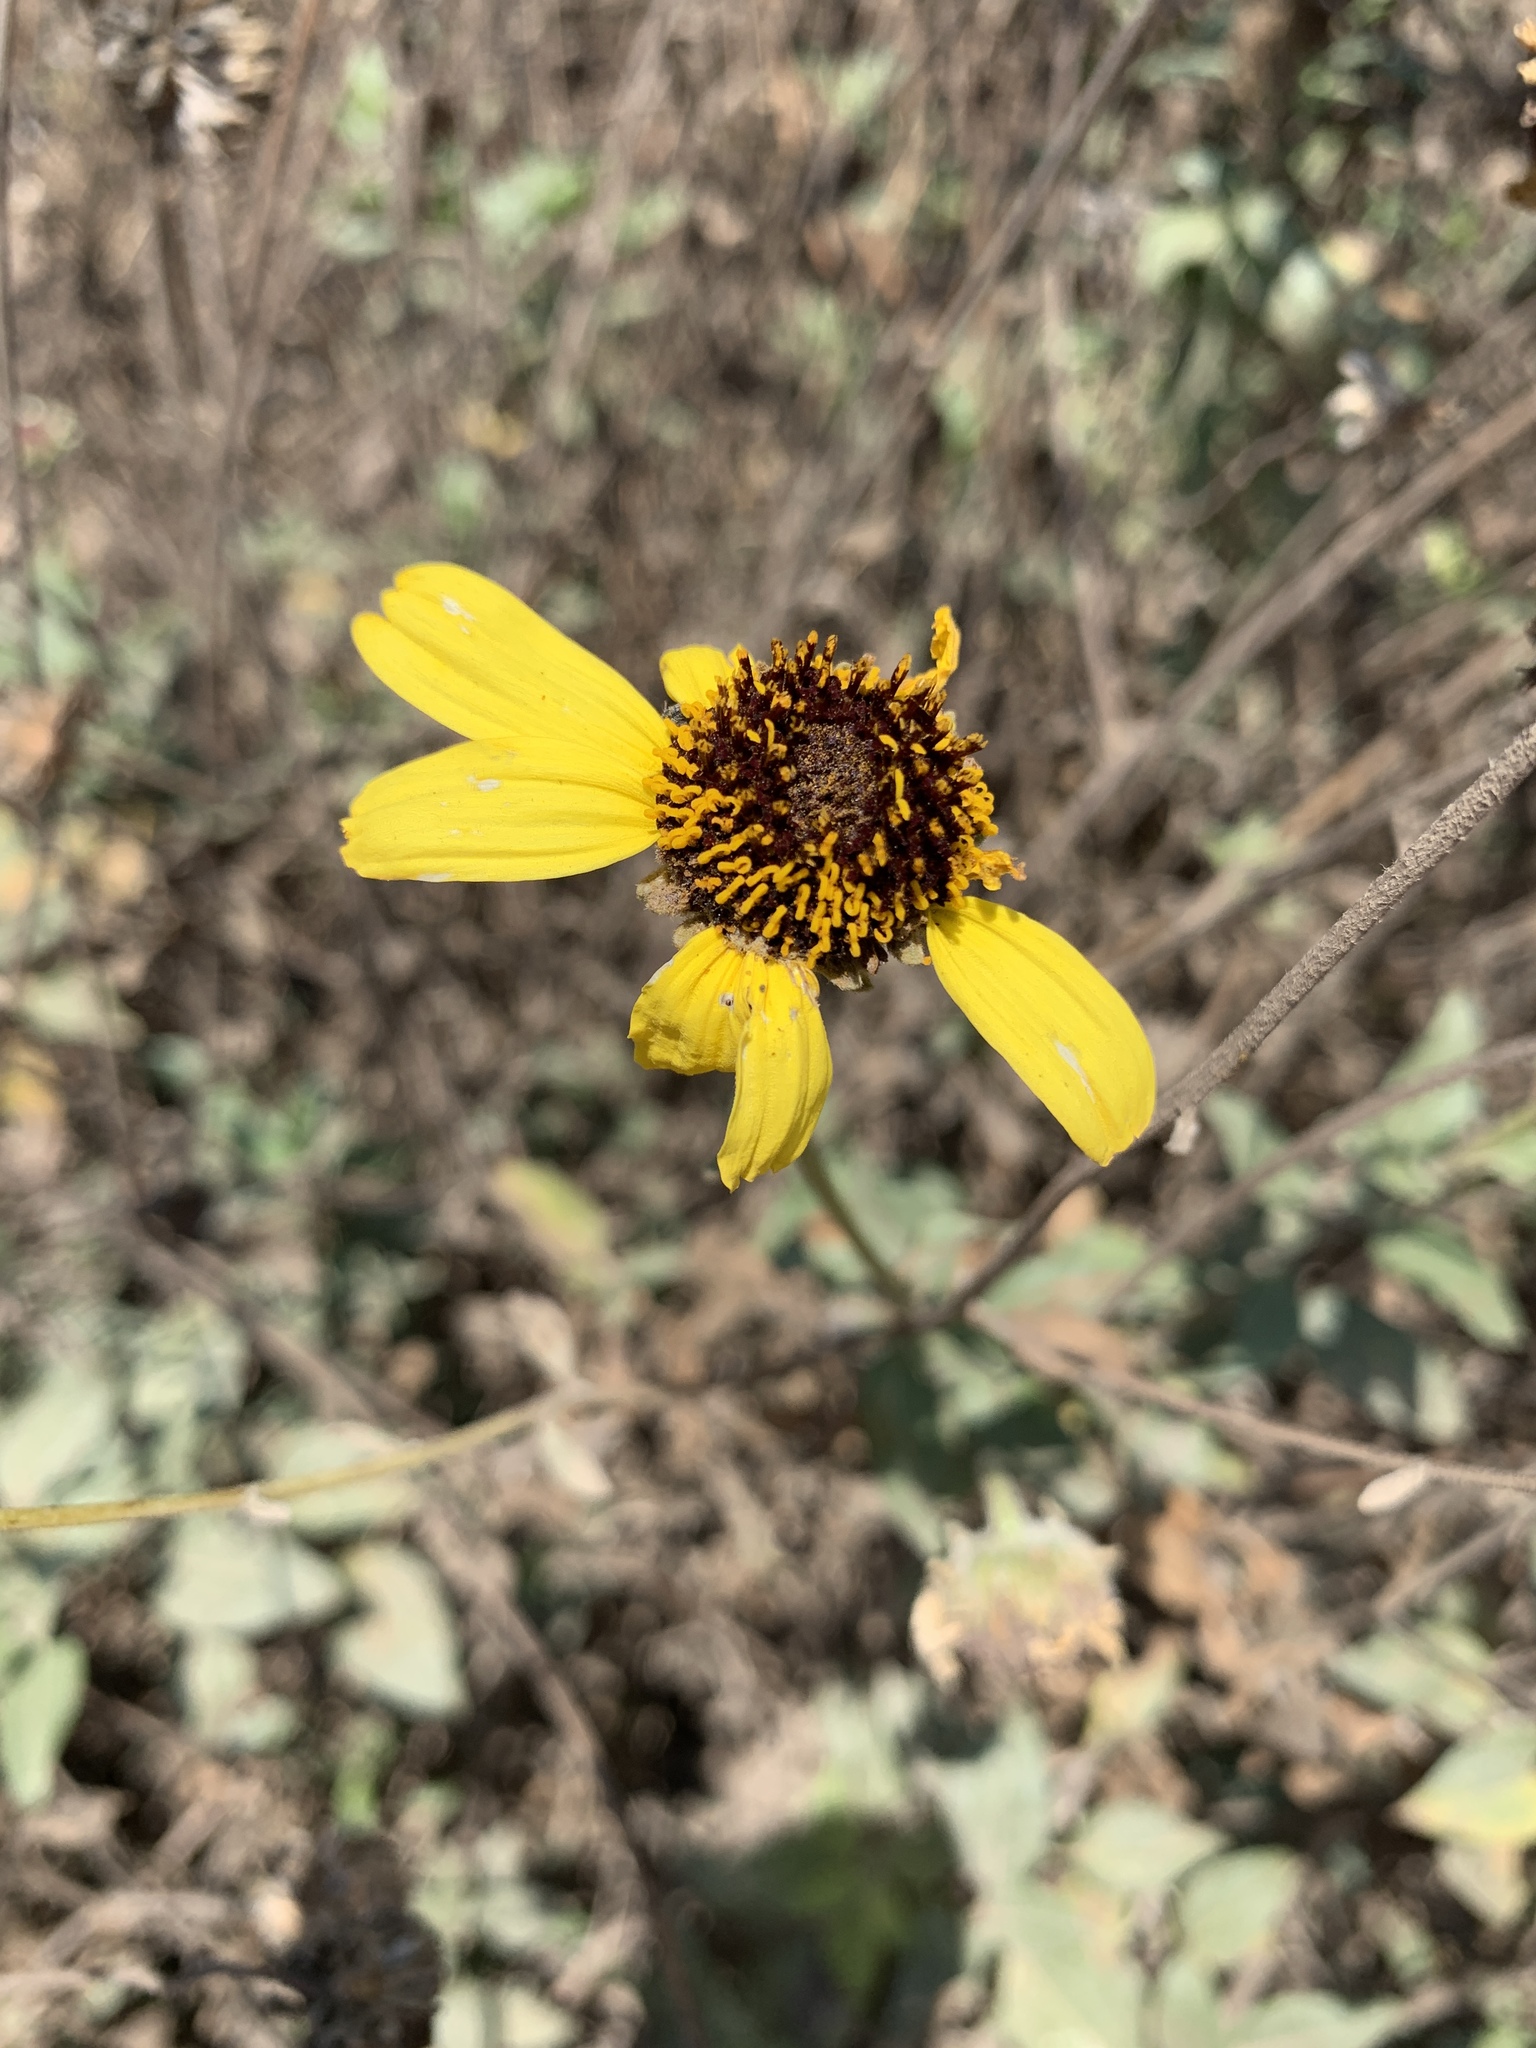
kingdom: Plantae
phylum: Tracheophyta
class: Magnoliopsida
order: Asterales
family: Asteraceae
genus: Encelia
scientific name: Encelia californica
